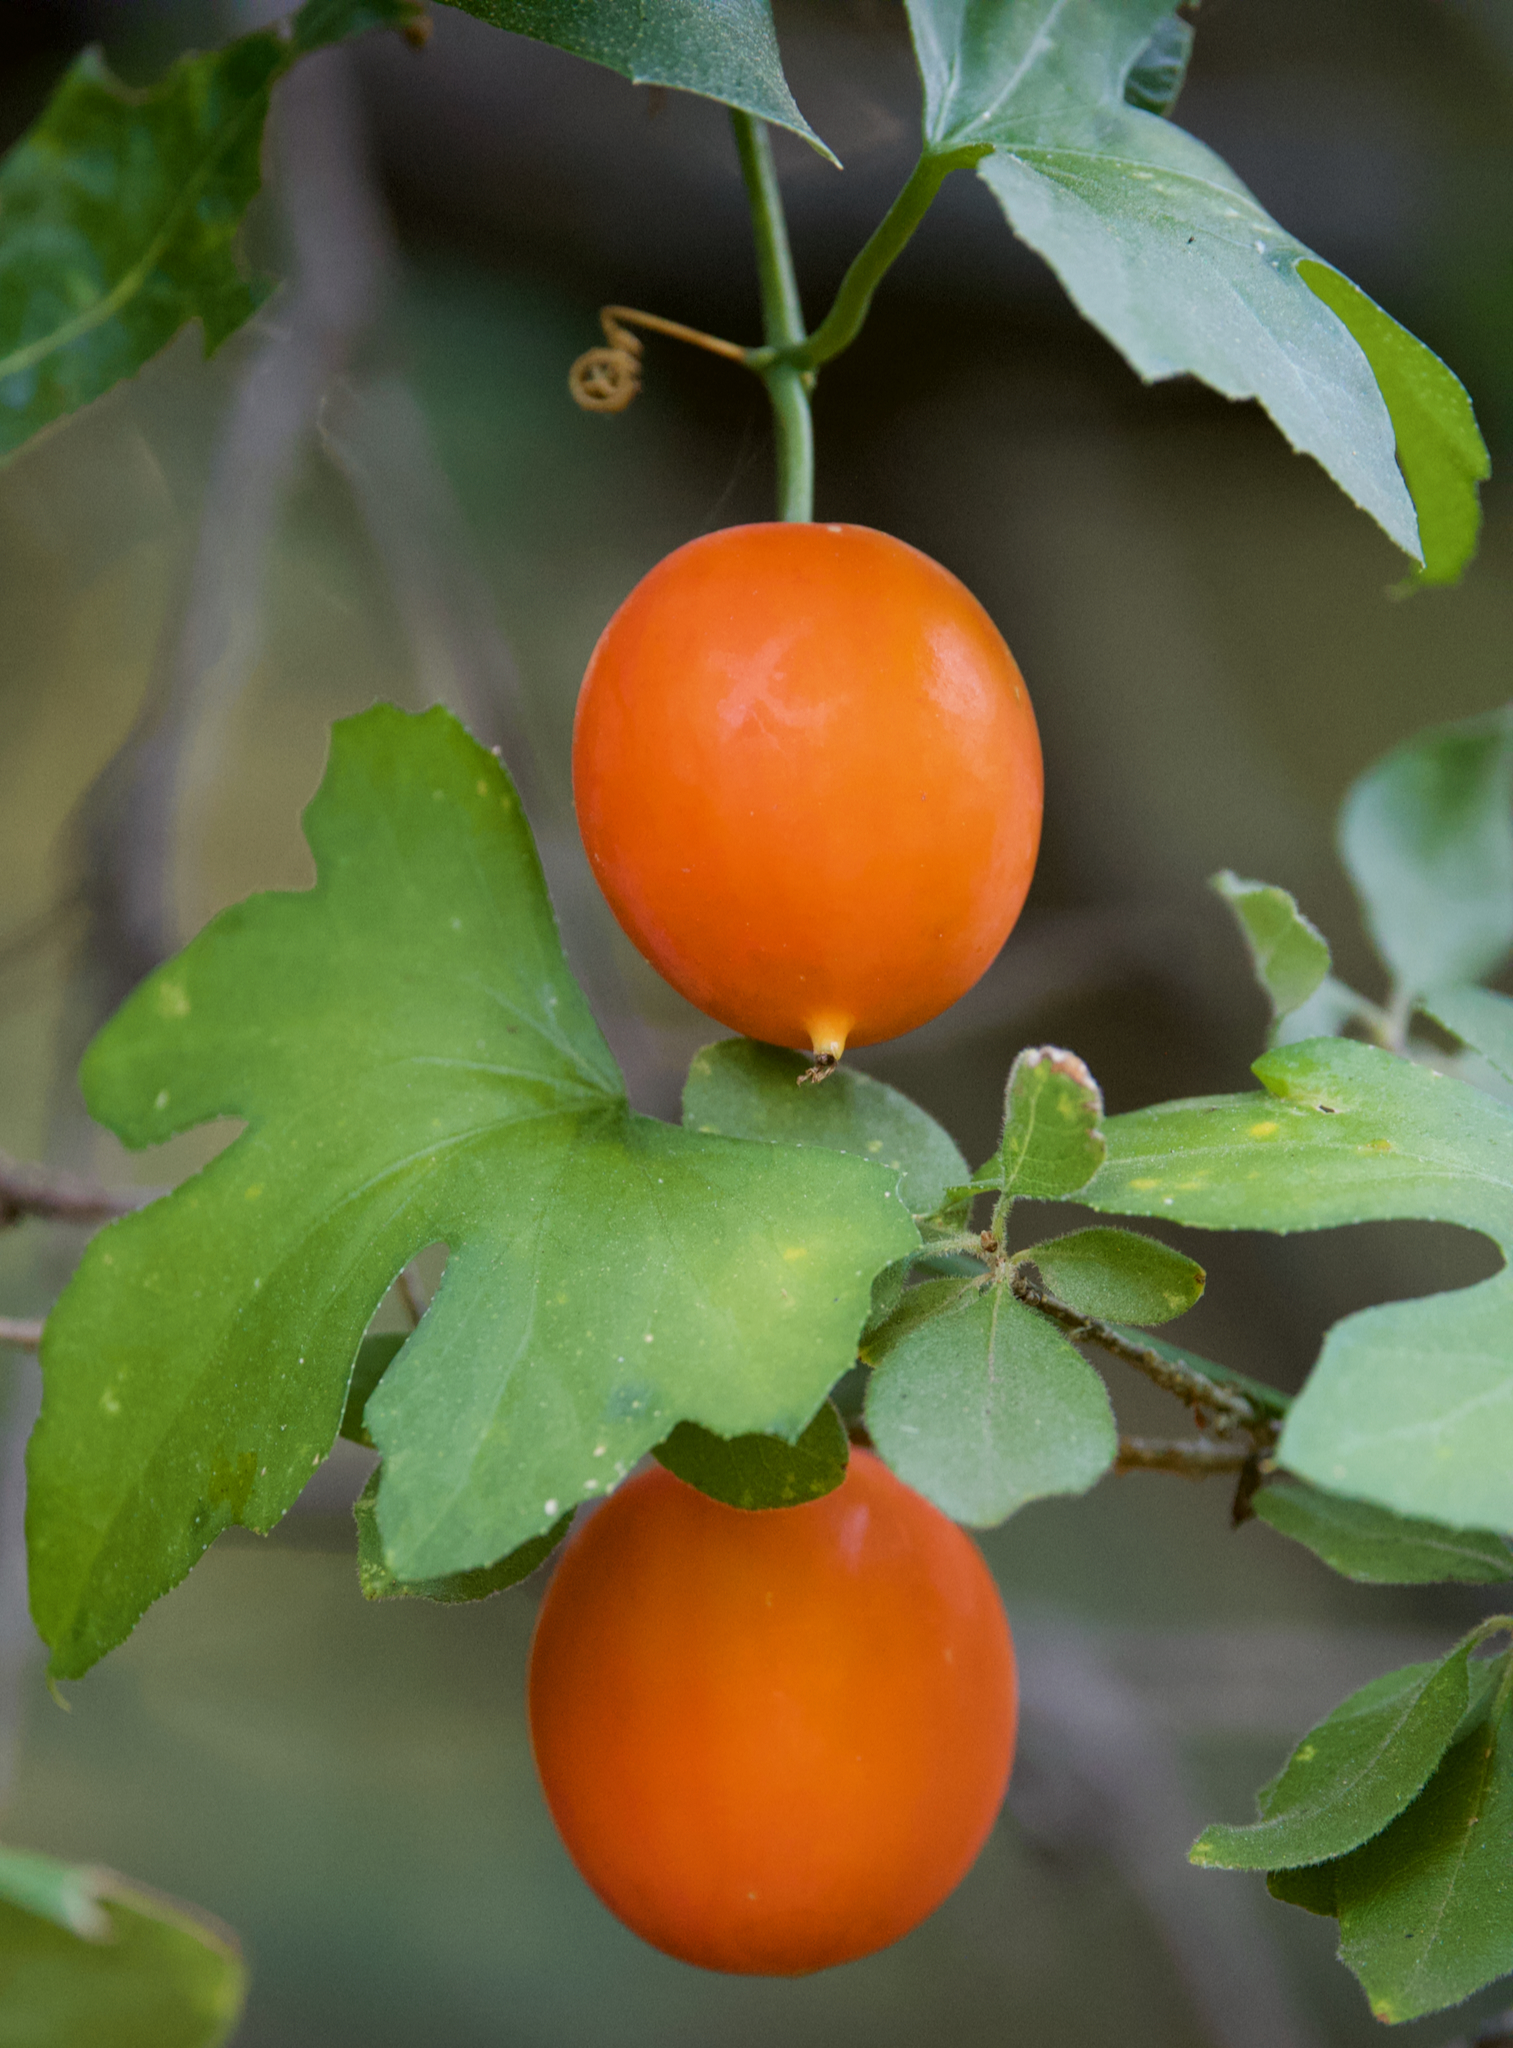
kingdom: Plantae
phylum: Tracheophyta
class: Magnoliopsida
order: Cucurbitales
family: Cucurbitaceae
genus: Ibervillea
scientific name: Ibervillea lindheimeri
